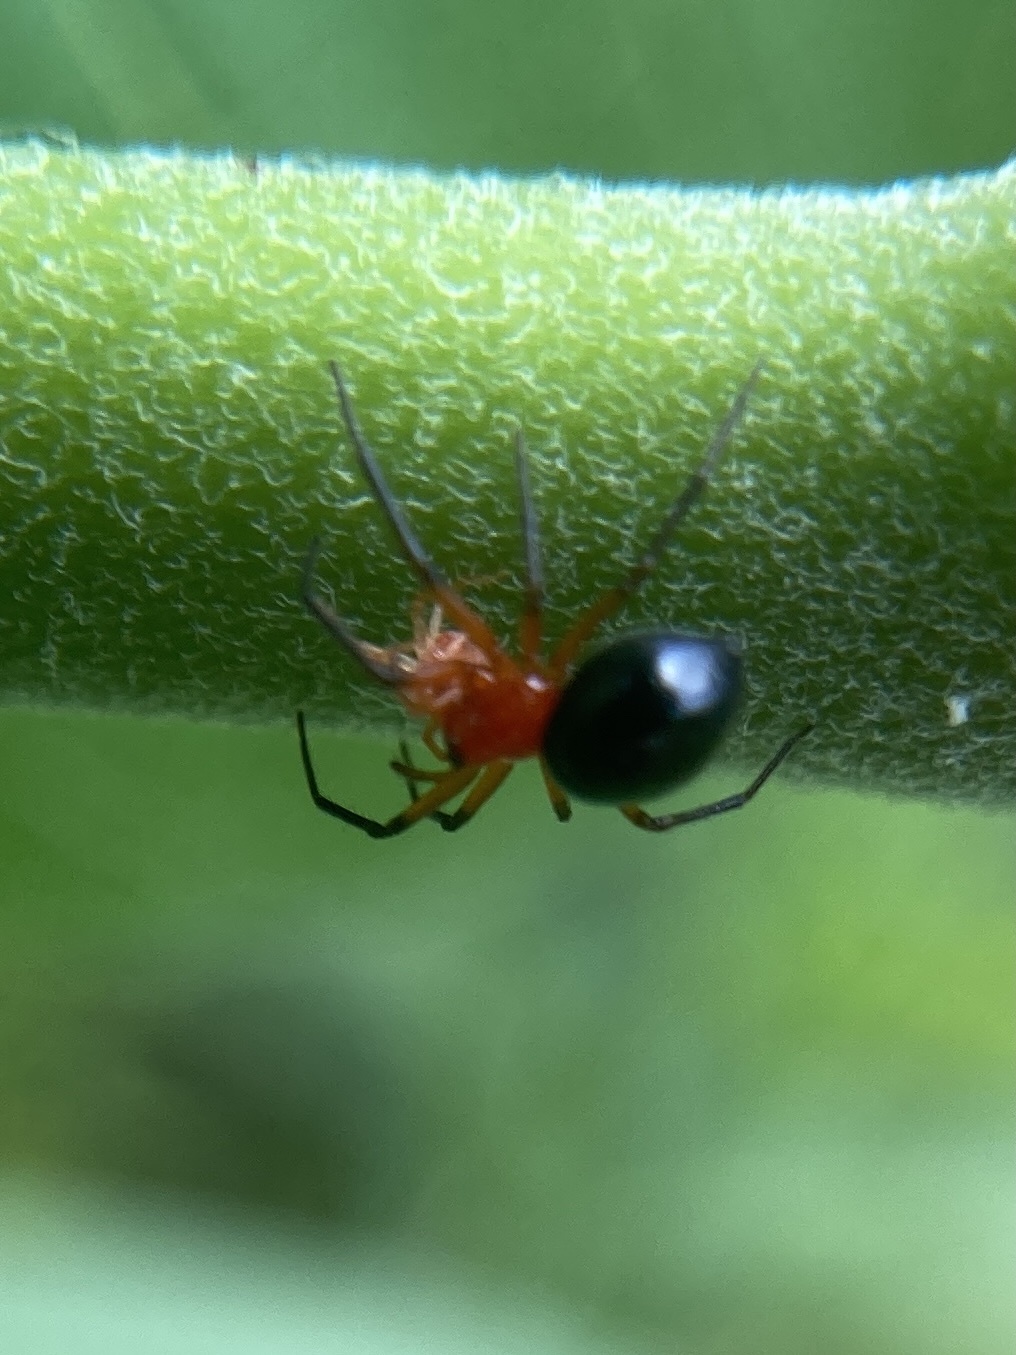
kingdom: Animalia
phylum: Arthropoda
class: Arachnida
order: Araneae
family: Linyphiidae
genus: Hypselistes
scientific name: Hypselistes florens
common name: Peatland sheetweb weaver
